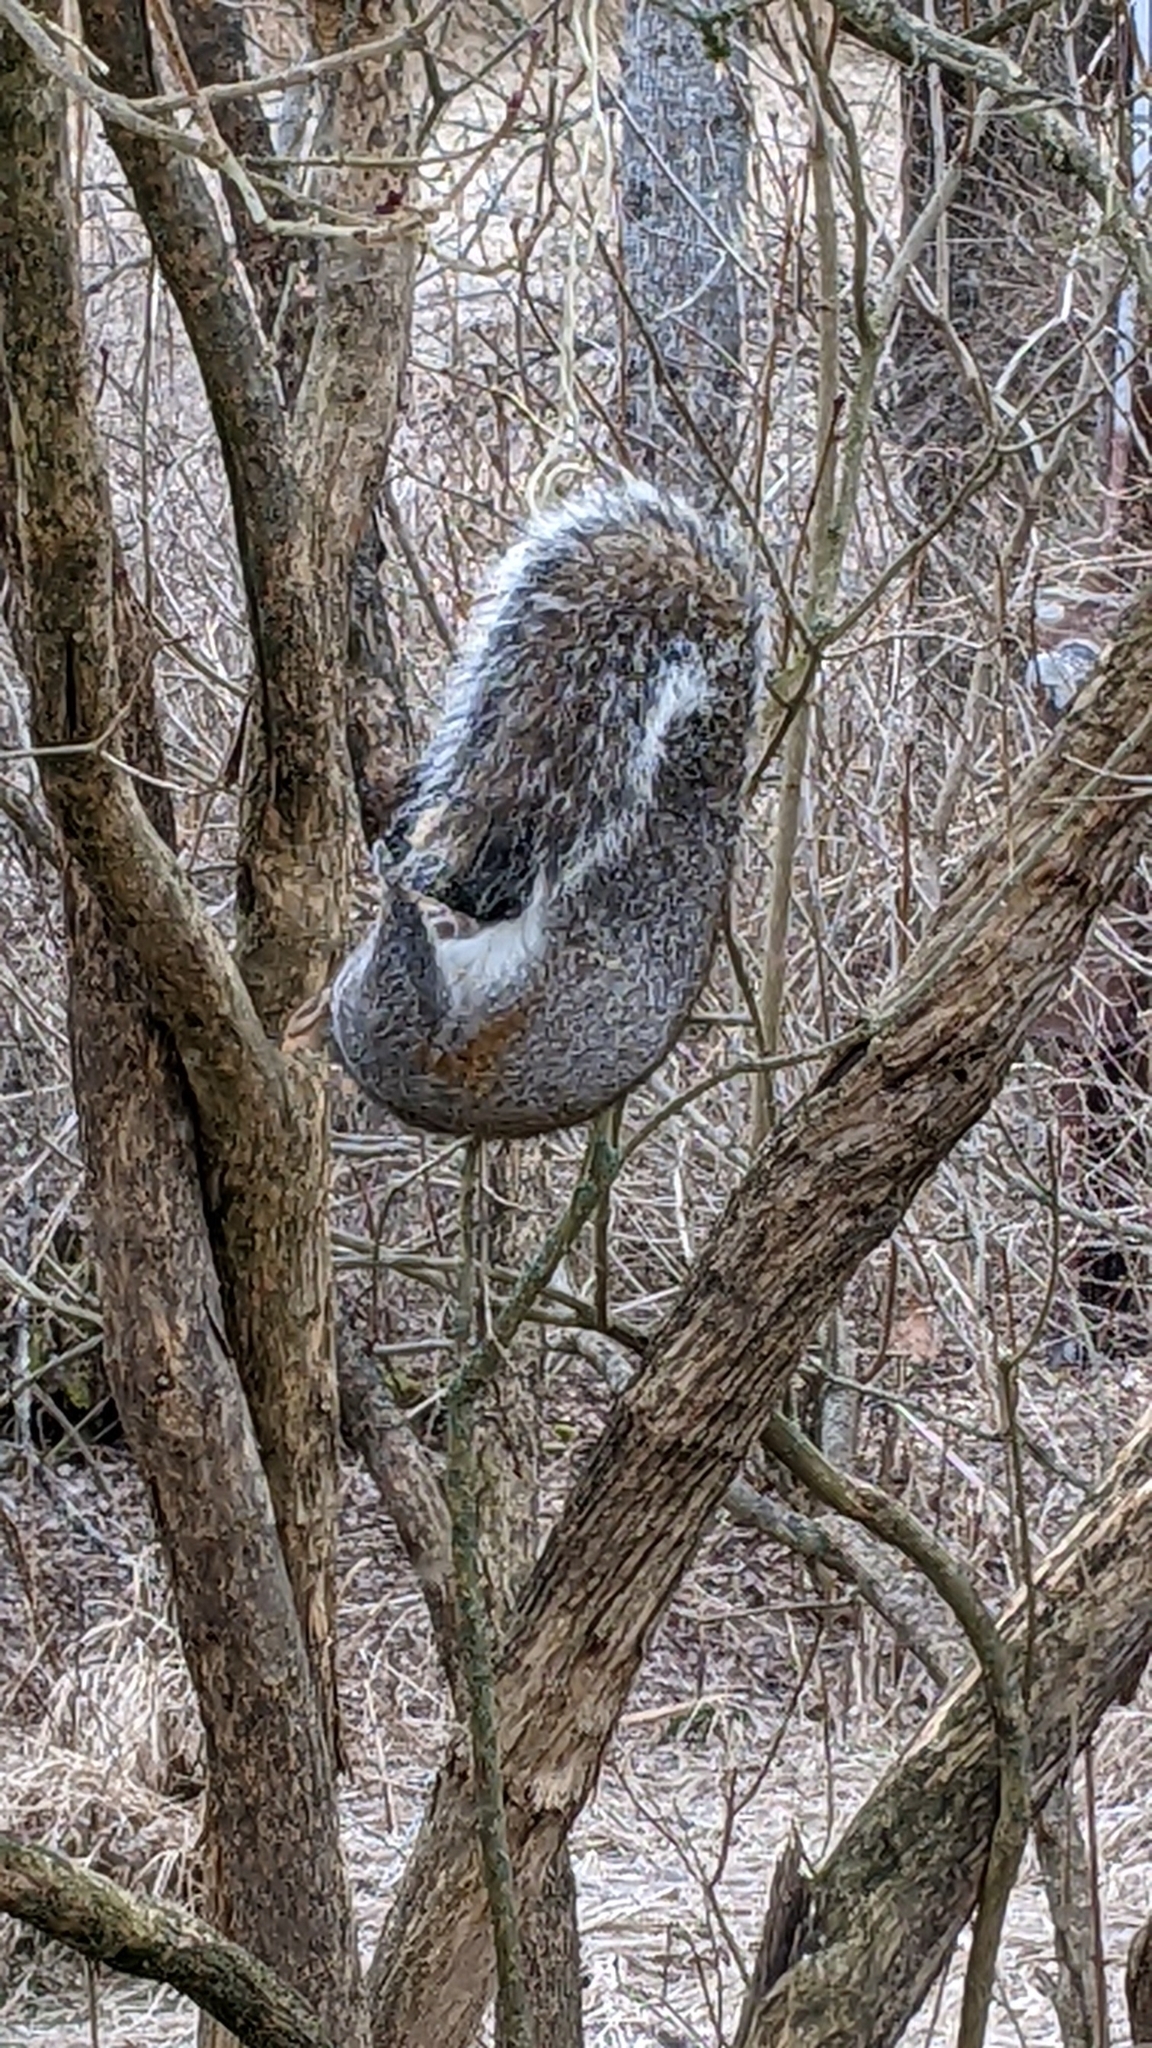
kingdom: Animalia
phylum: Chordata
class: Mammalia
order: Rodentia
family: Sciuridae
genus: Sciurus
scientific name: Sciurus carolinensis
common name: Eastern gray squirrel
